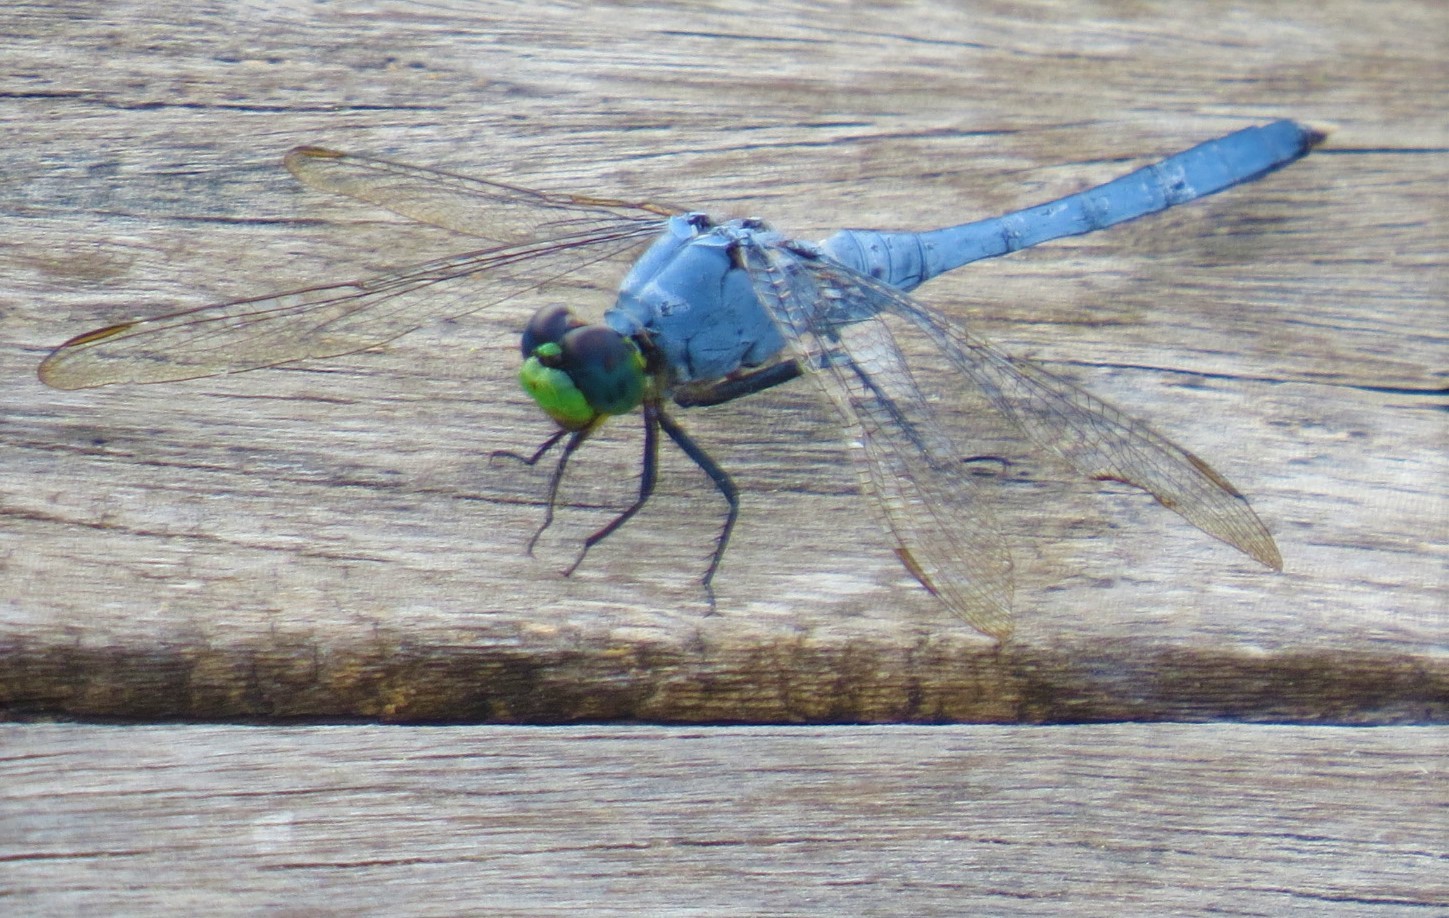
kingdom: Animalia
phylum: Arthropoda
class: Insecta
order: Odonata
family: Libellulidae
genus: Erythemis
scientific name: Erythemis simplicicollis
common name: Eastern pondhawk
